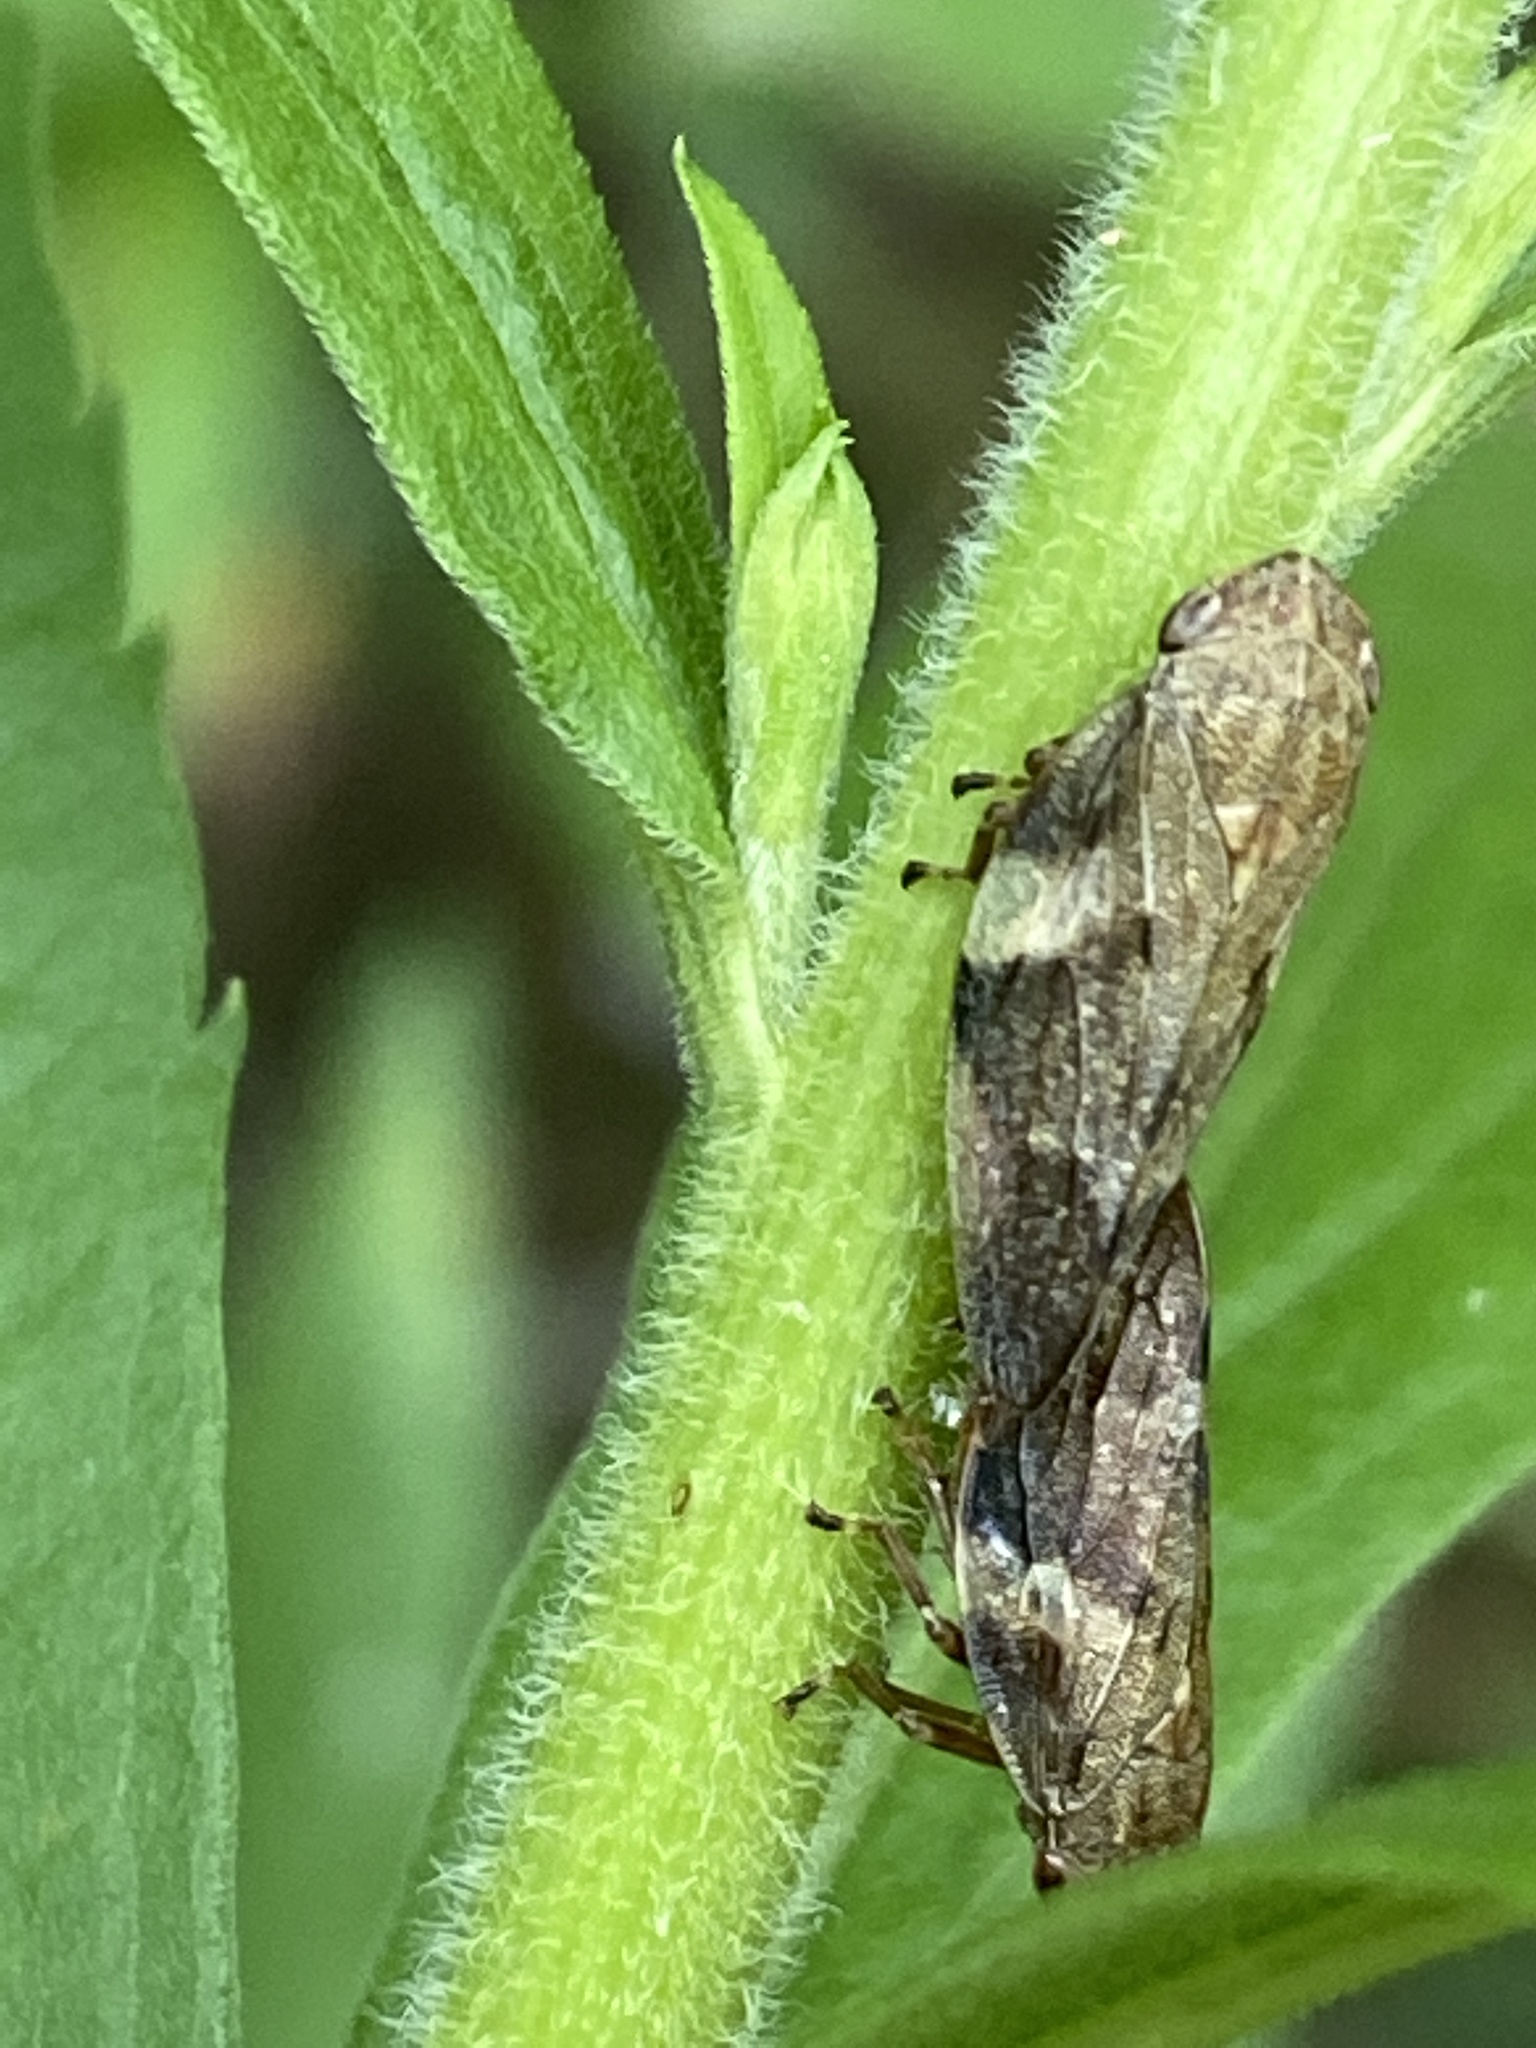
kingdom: Animalia
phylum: Arthropoda
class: Insecta
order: Hemiptera
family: Aphrophoridae
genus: Aphrophora
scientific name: Aphrophora alni
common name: European alder spittlebug
